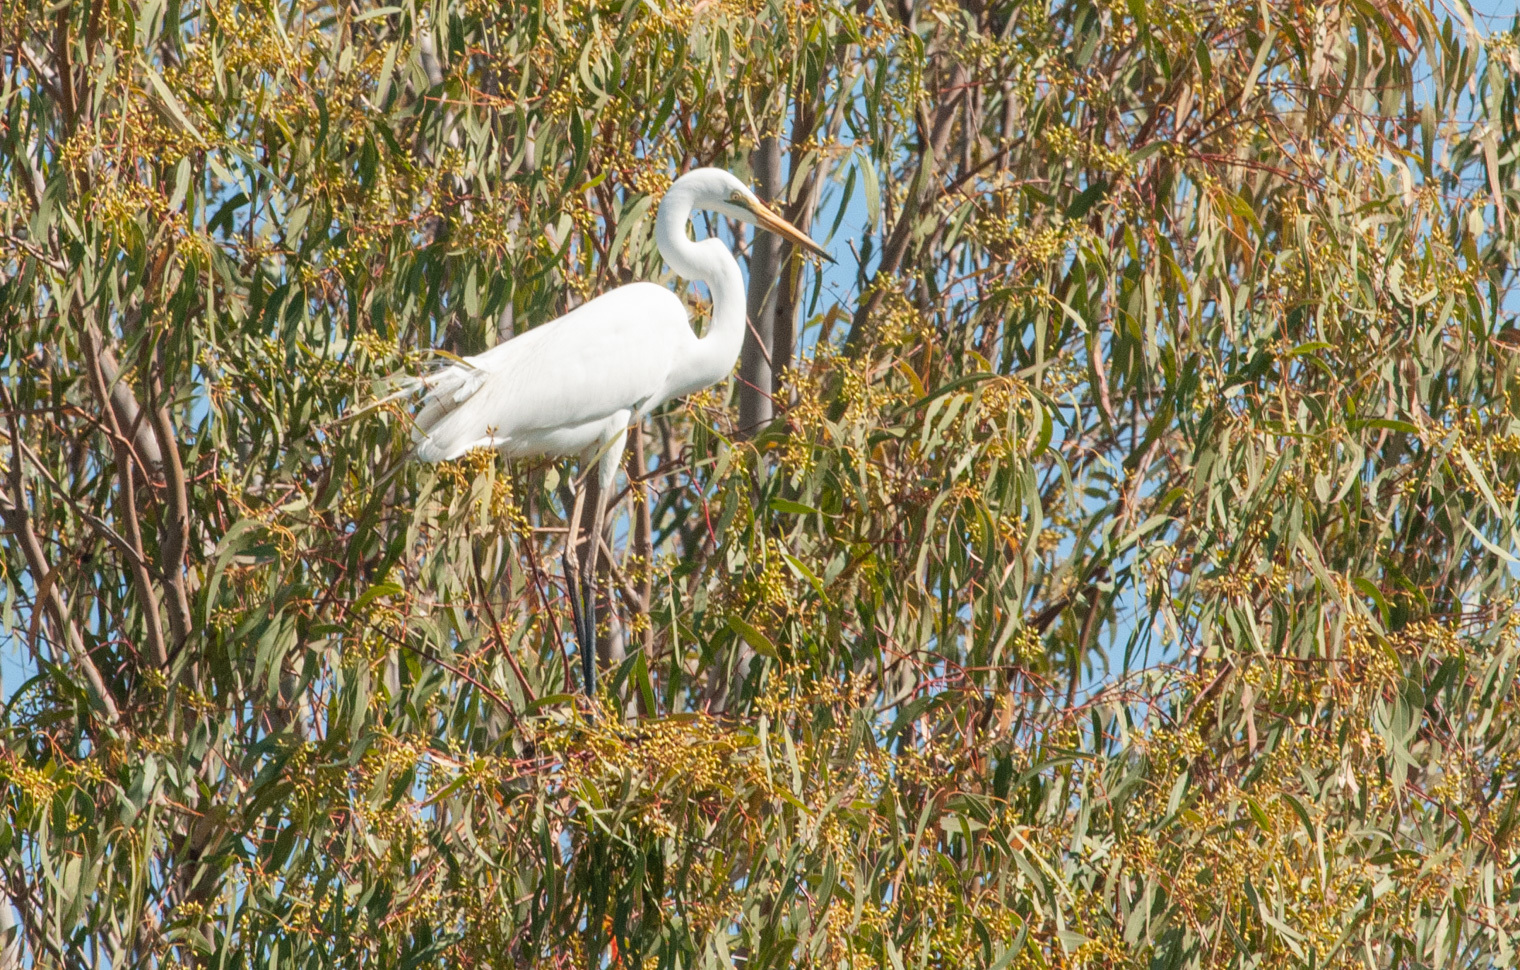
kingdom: Animalia
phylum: Chordata
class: Aves
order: Pelecaniformes
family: Ardeidae
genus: Ardea
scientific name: Ardea alba
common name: Great egret
